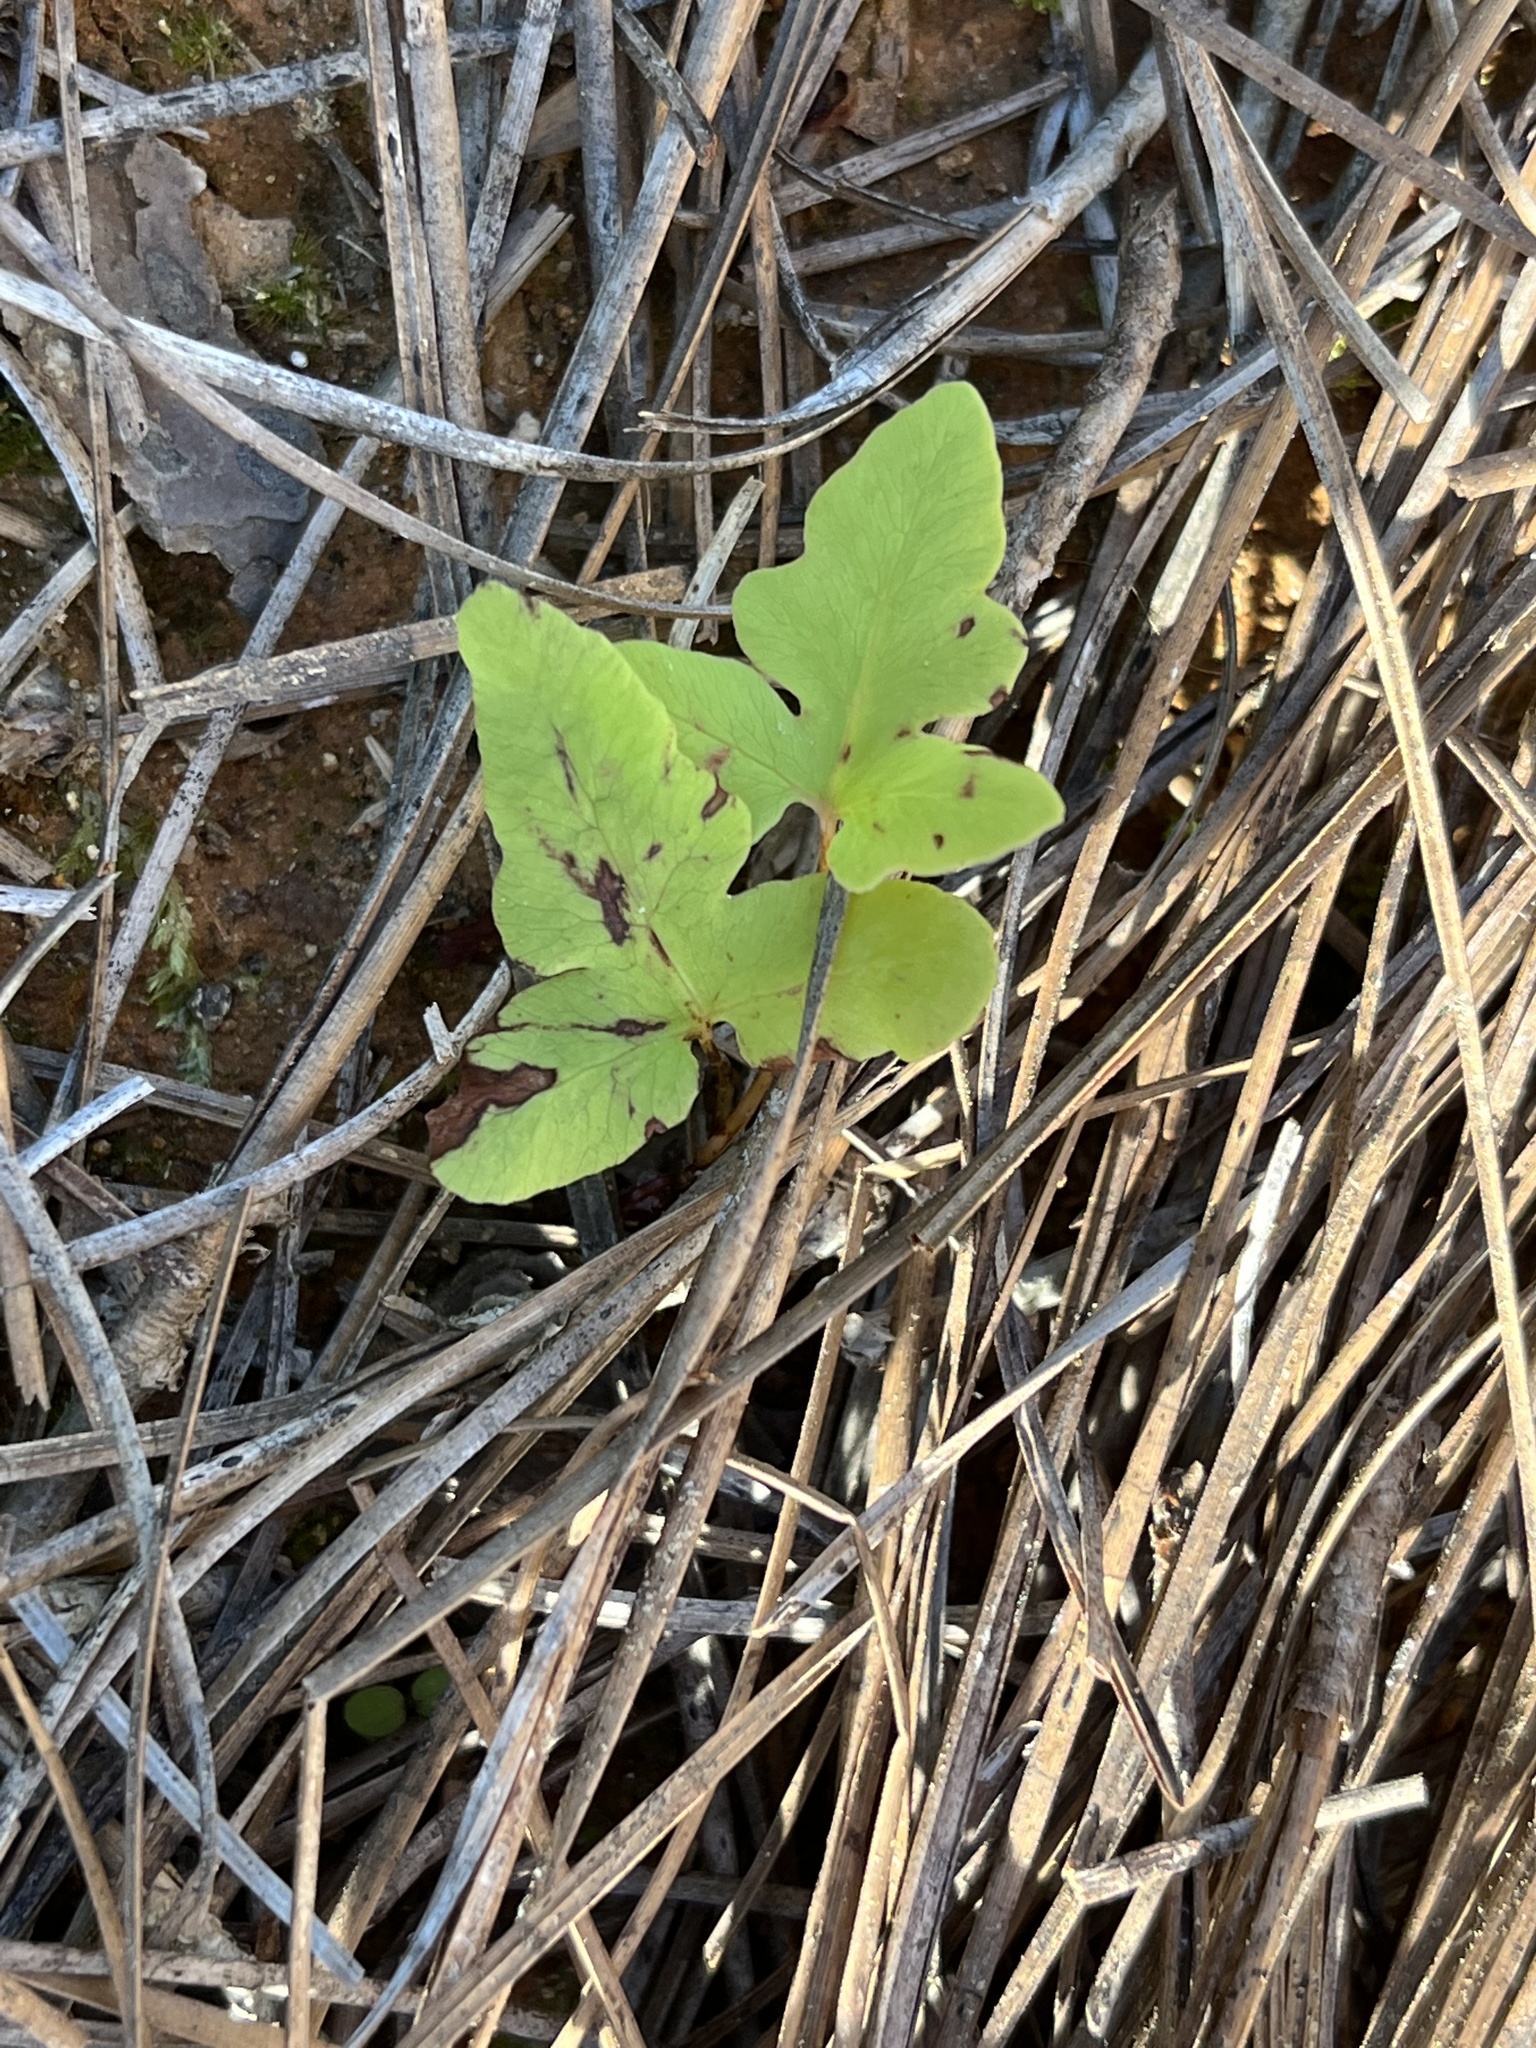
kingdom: Plantae
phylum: Tracheophyta
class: Polypodiopsida
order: Polypodiales
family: Onocleaceae
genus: Onoclea
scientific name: Onoclea sensibilis
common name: Sensitive fern
